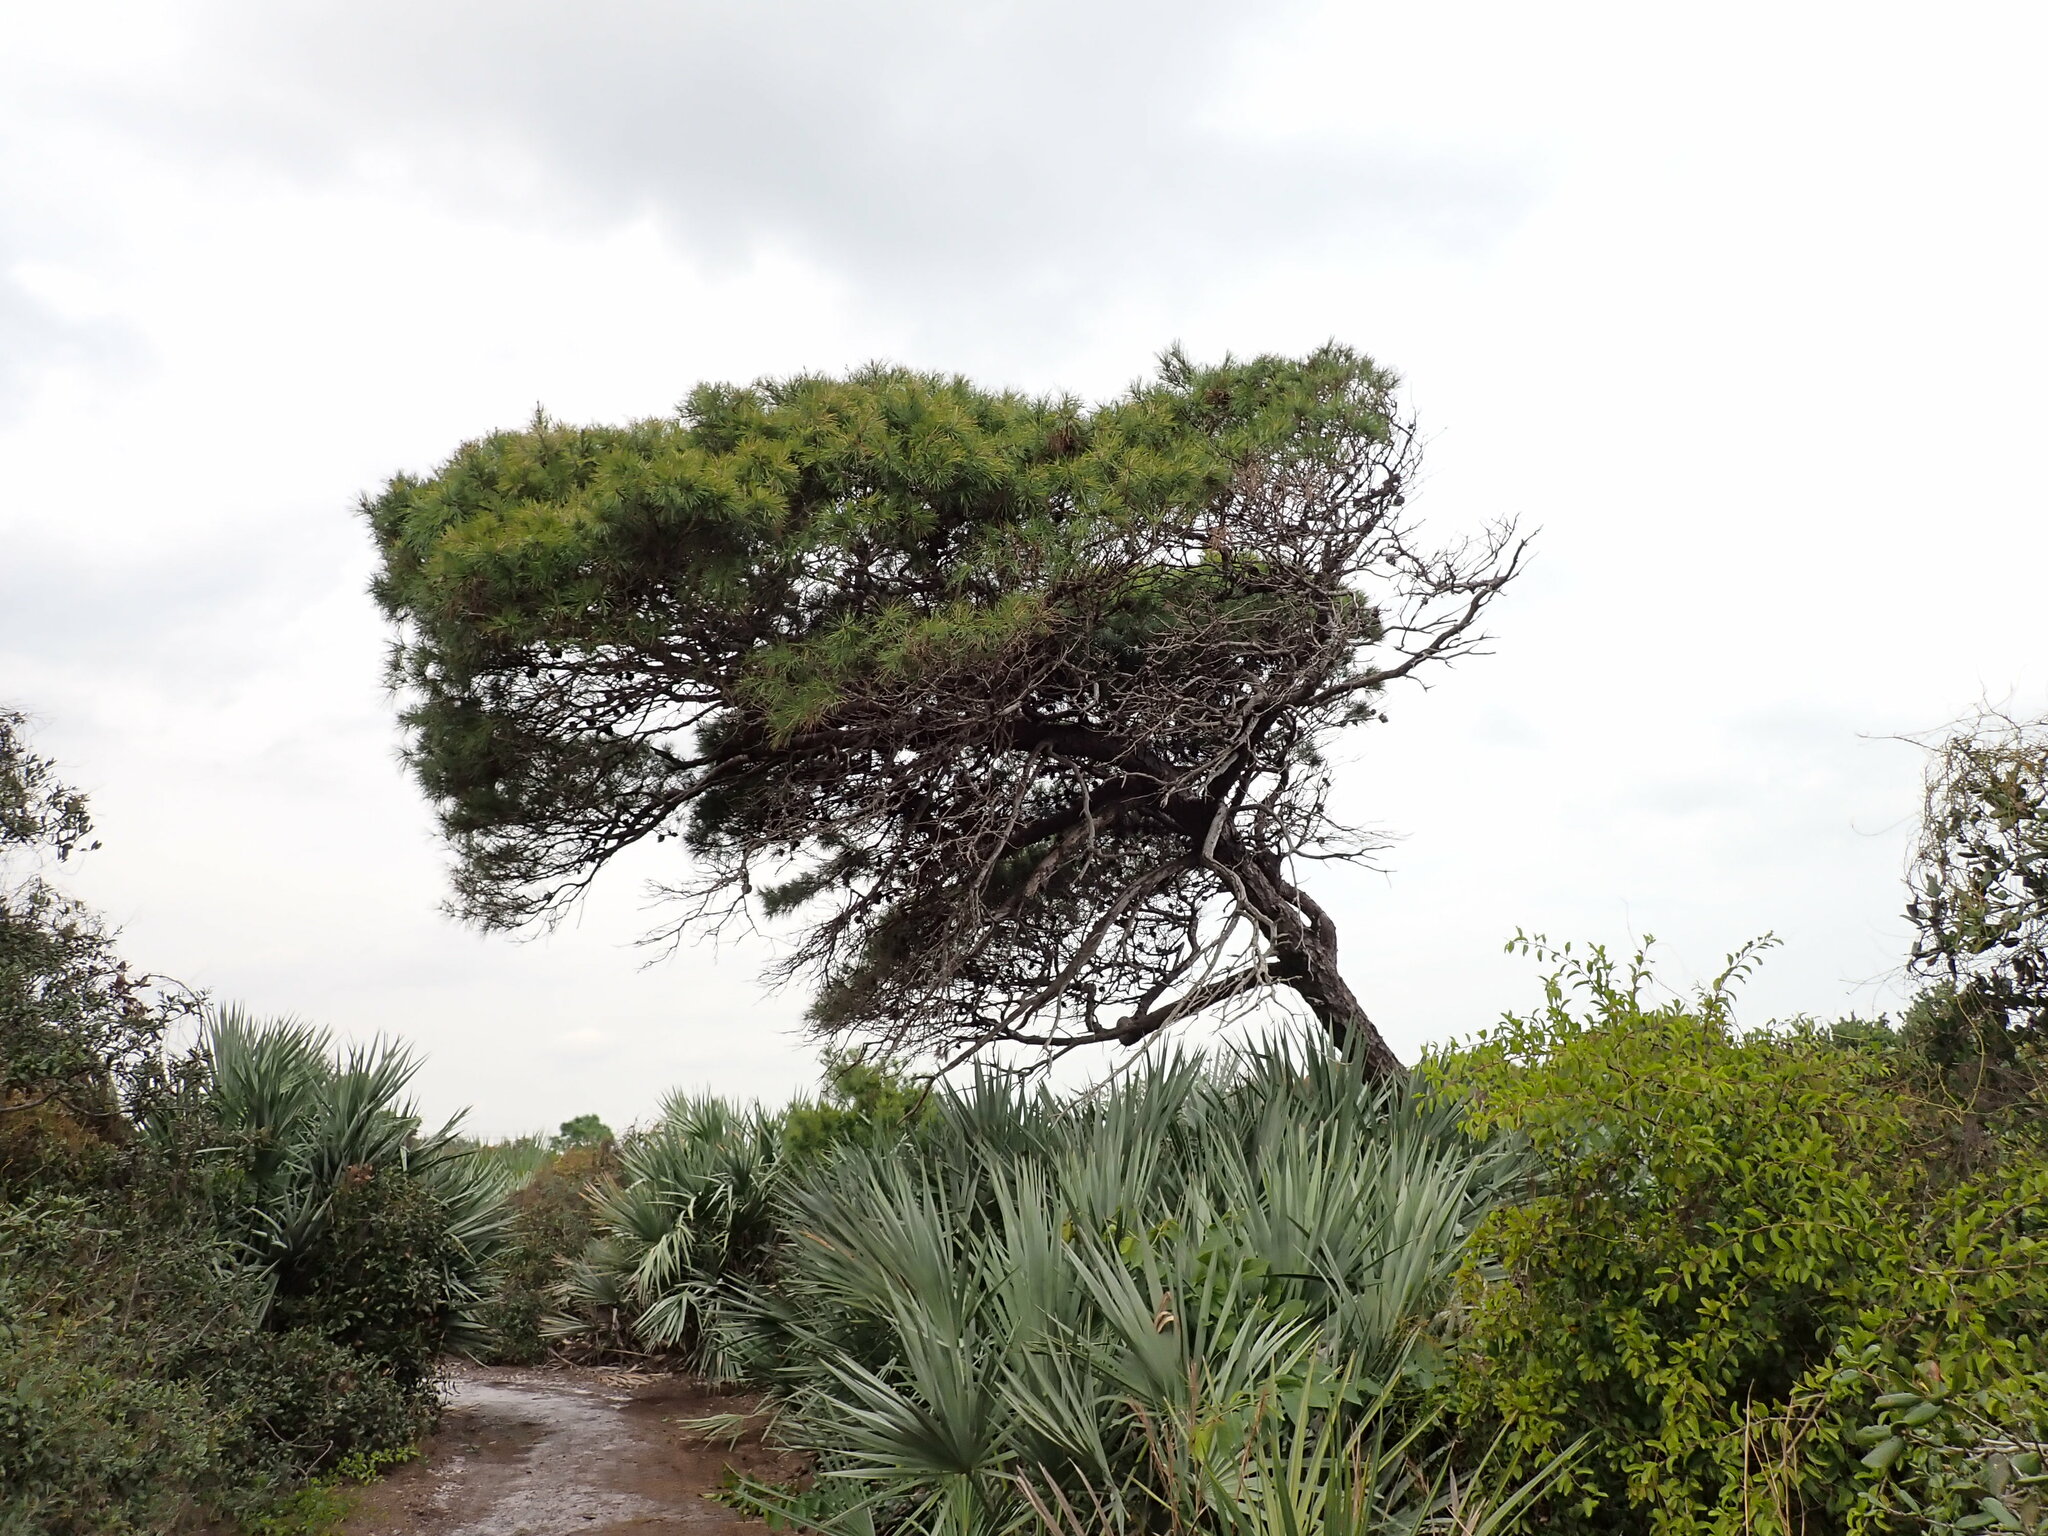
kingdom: Plantae
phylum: Tracheophyta
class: Pinopsida
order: Pinales
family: Pinaceae
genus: Pinus
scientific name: Pinus clausa
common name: Sand pine
